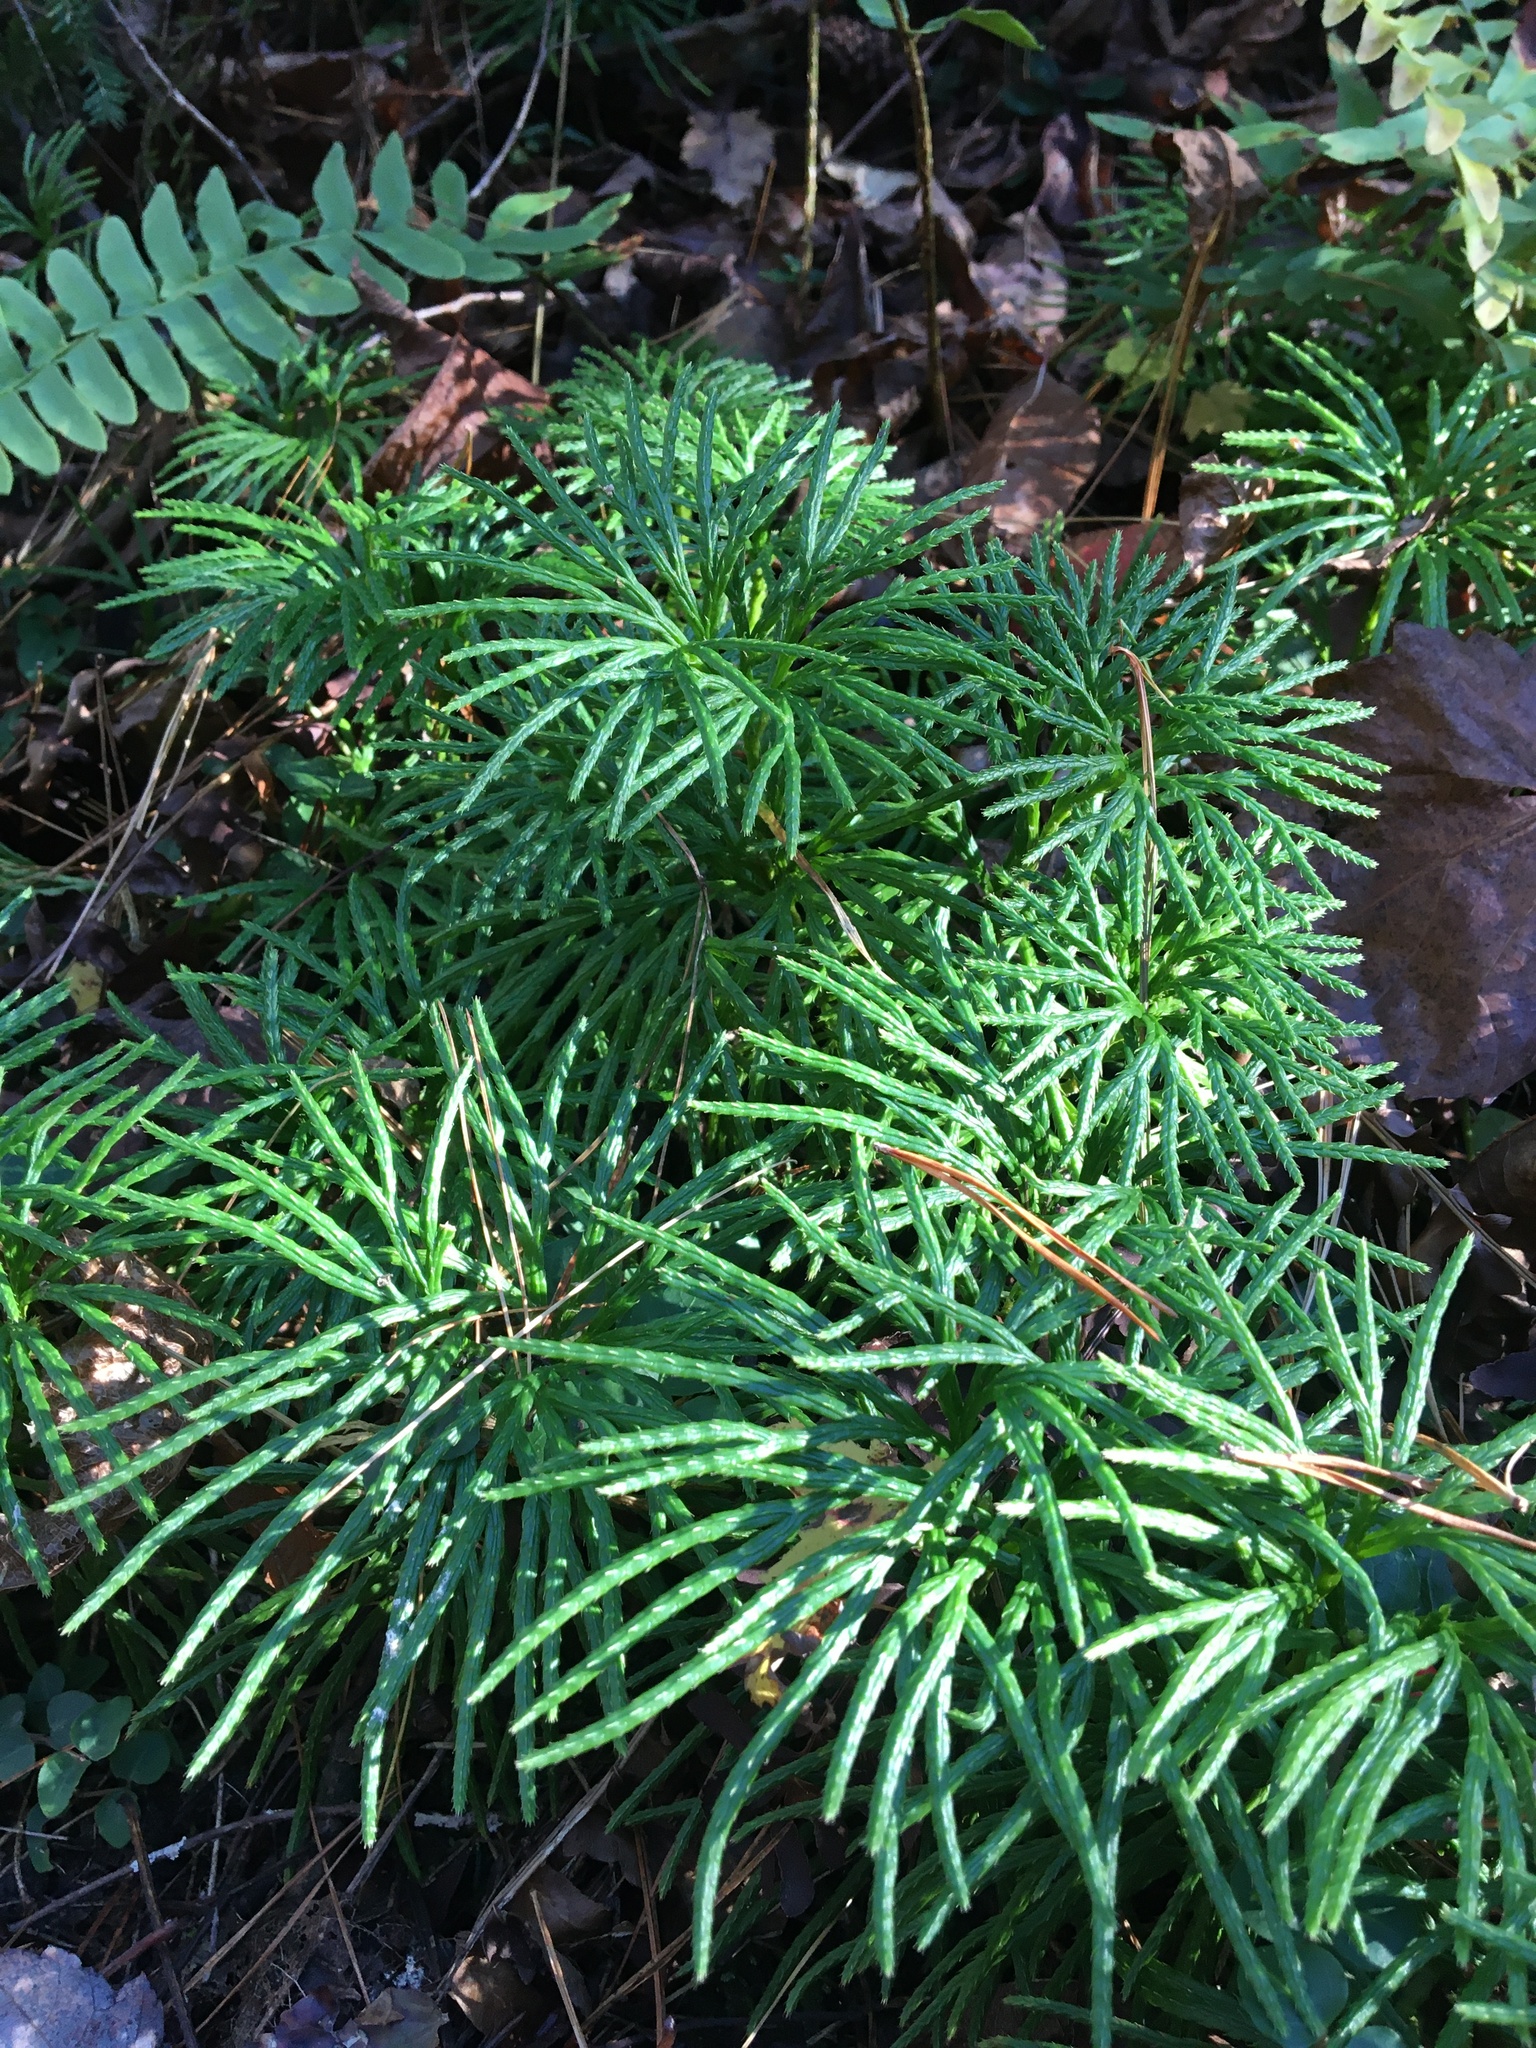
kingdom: Plantae
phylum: Tracheophyta
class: Lycopodiopsida
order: Lycopodiales
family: Lycopodiaceae
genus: Diphasiastrum
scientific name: Diphasiastrum digitatum
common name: Southern running-pine
